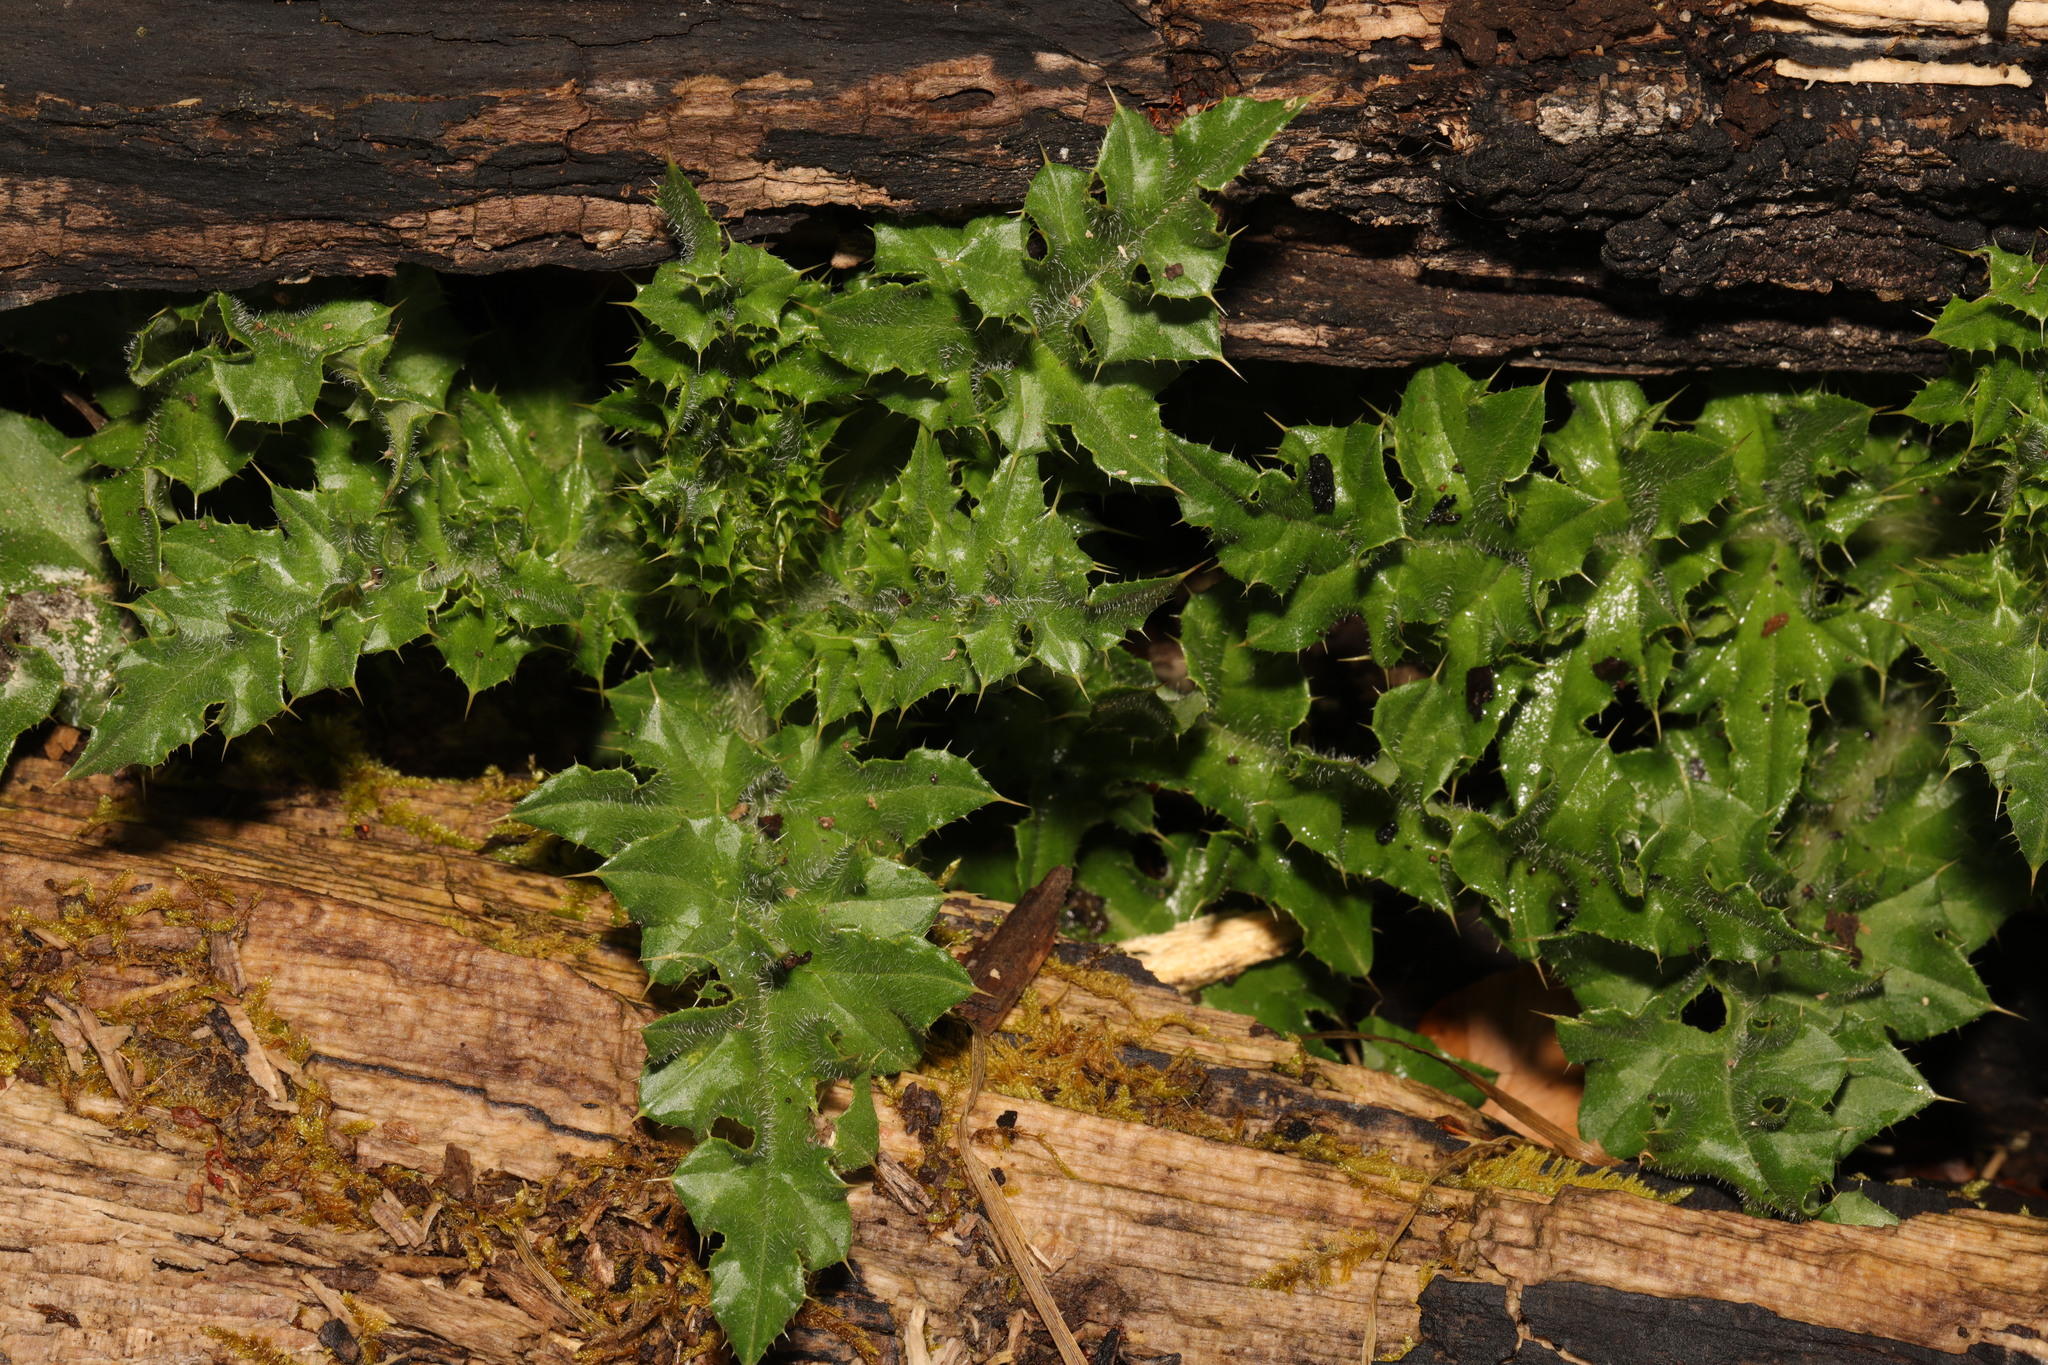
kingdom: Plantae
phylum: Tracheophyta
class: Magnoliopsida
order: Asterales
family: Asteraceae
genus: Cirsium
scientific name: Cirsium arvense
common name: Creeping thistle
